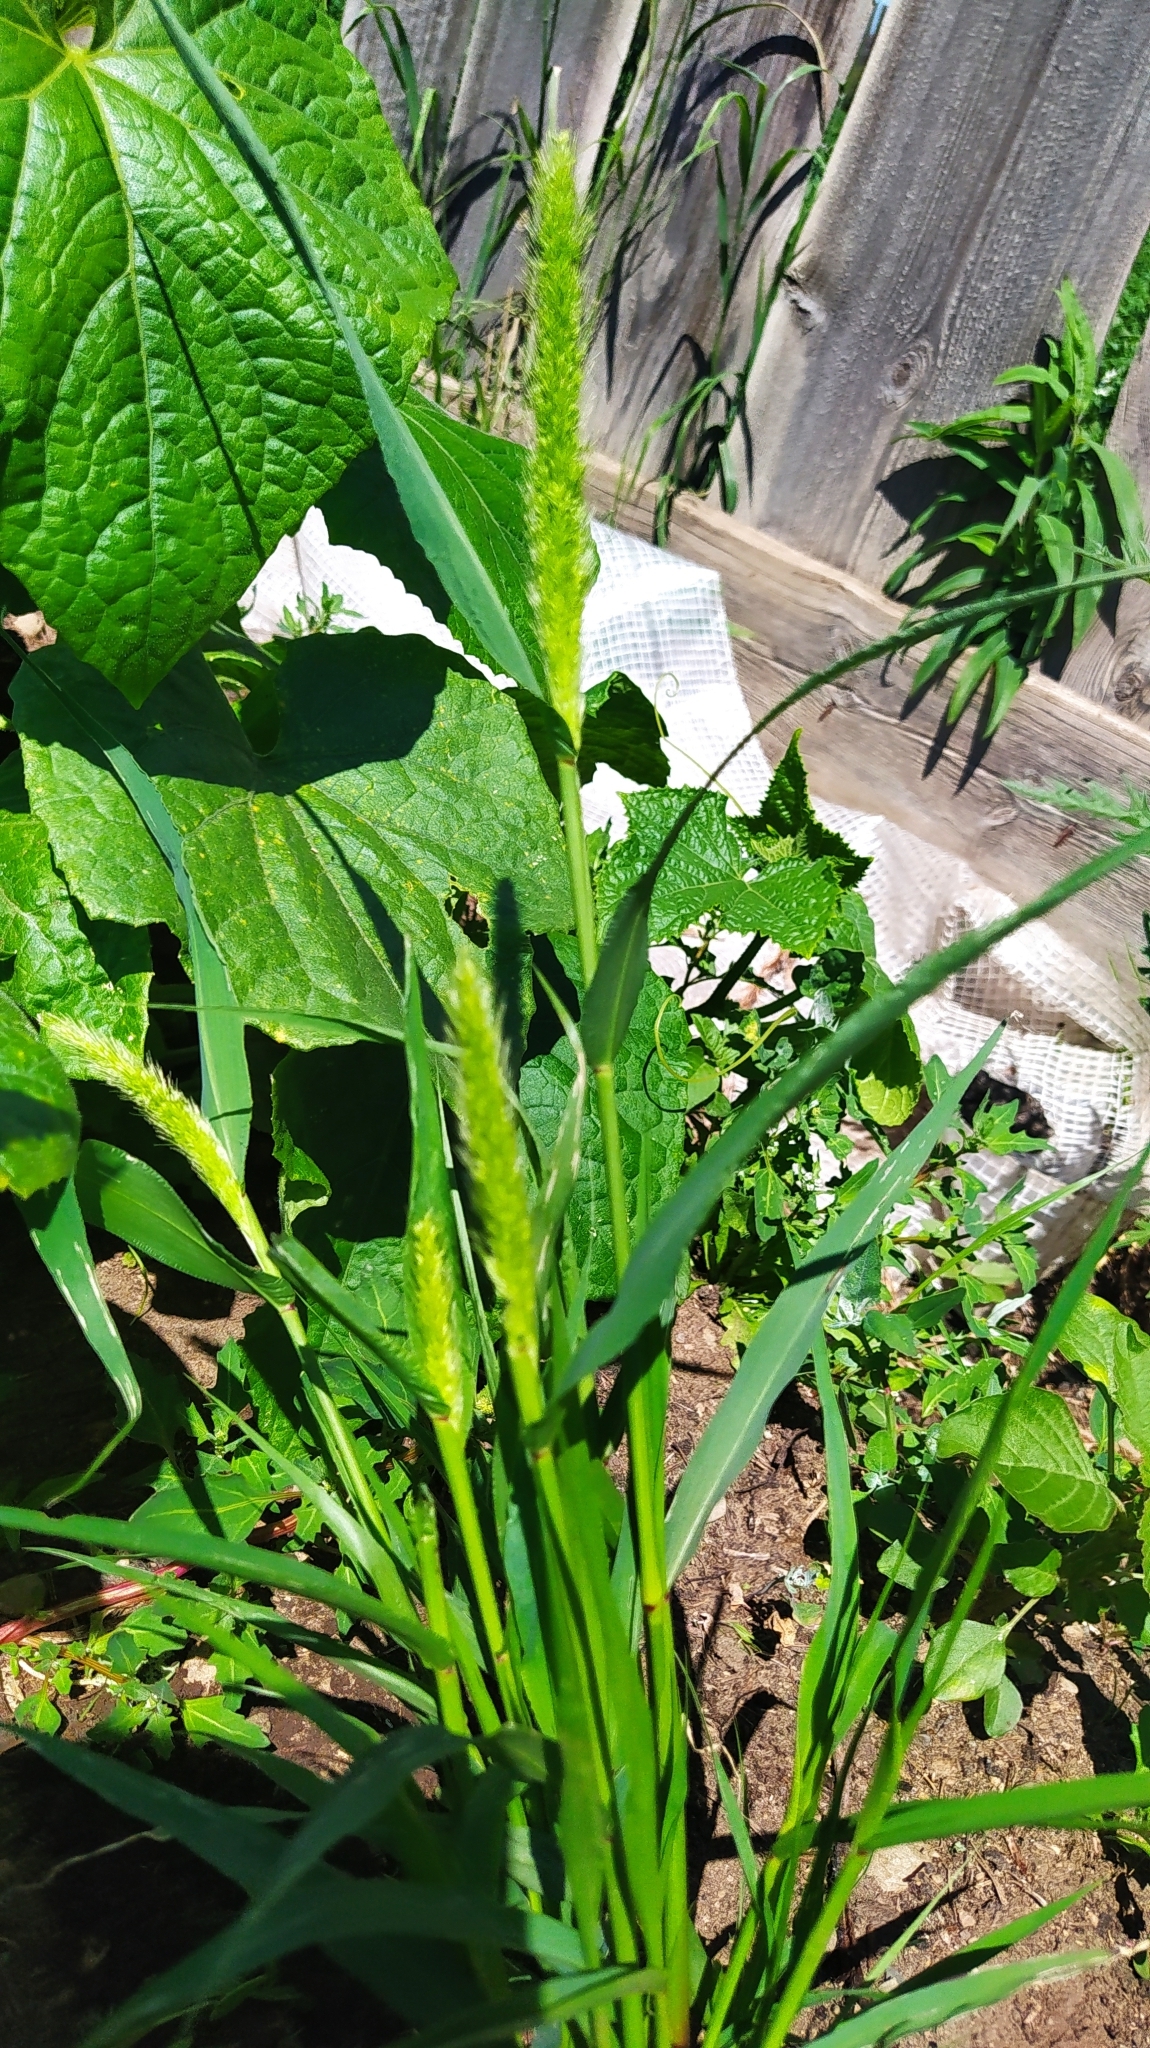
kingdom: Plantae
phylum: Tracheophyta
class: Liliopsida
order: Poales
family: Poaceae
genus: Setaria
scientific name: Setaria viridis
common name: Green bristlegrass
